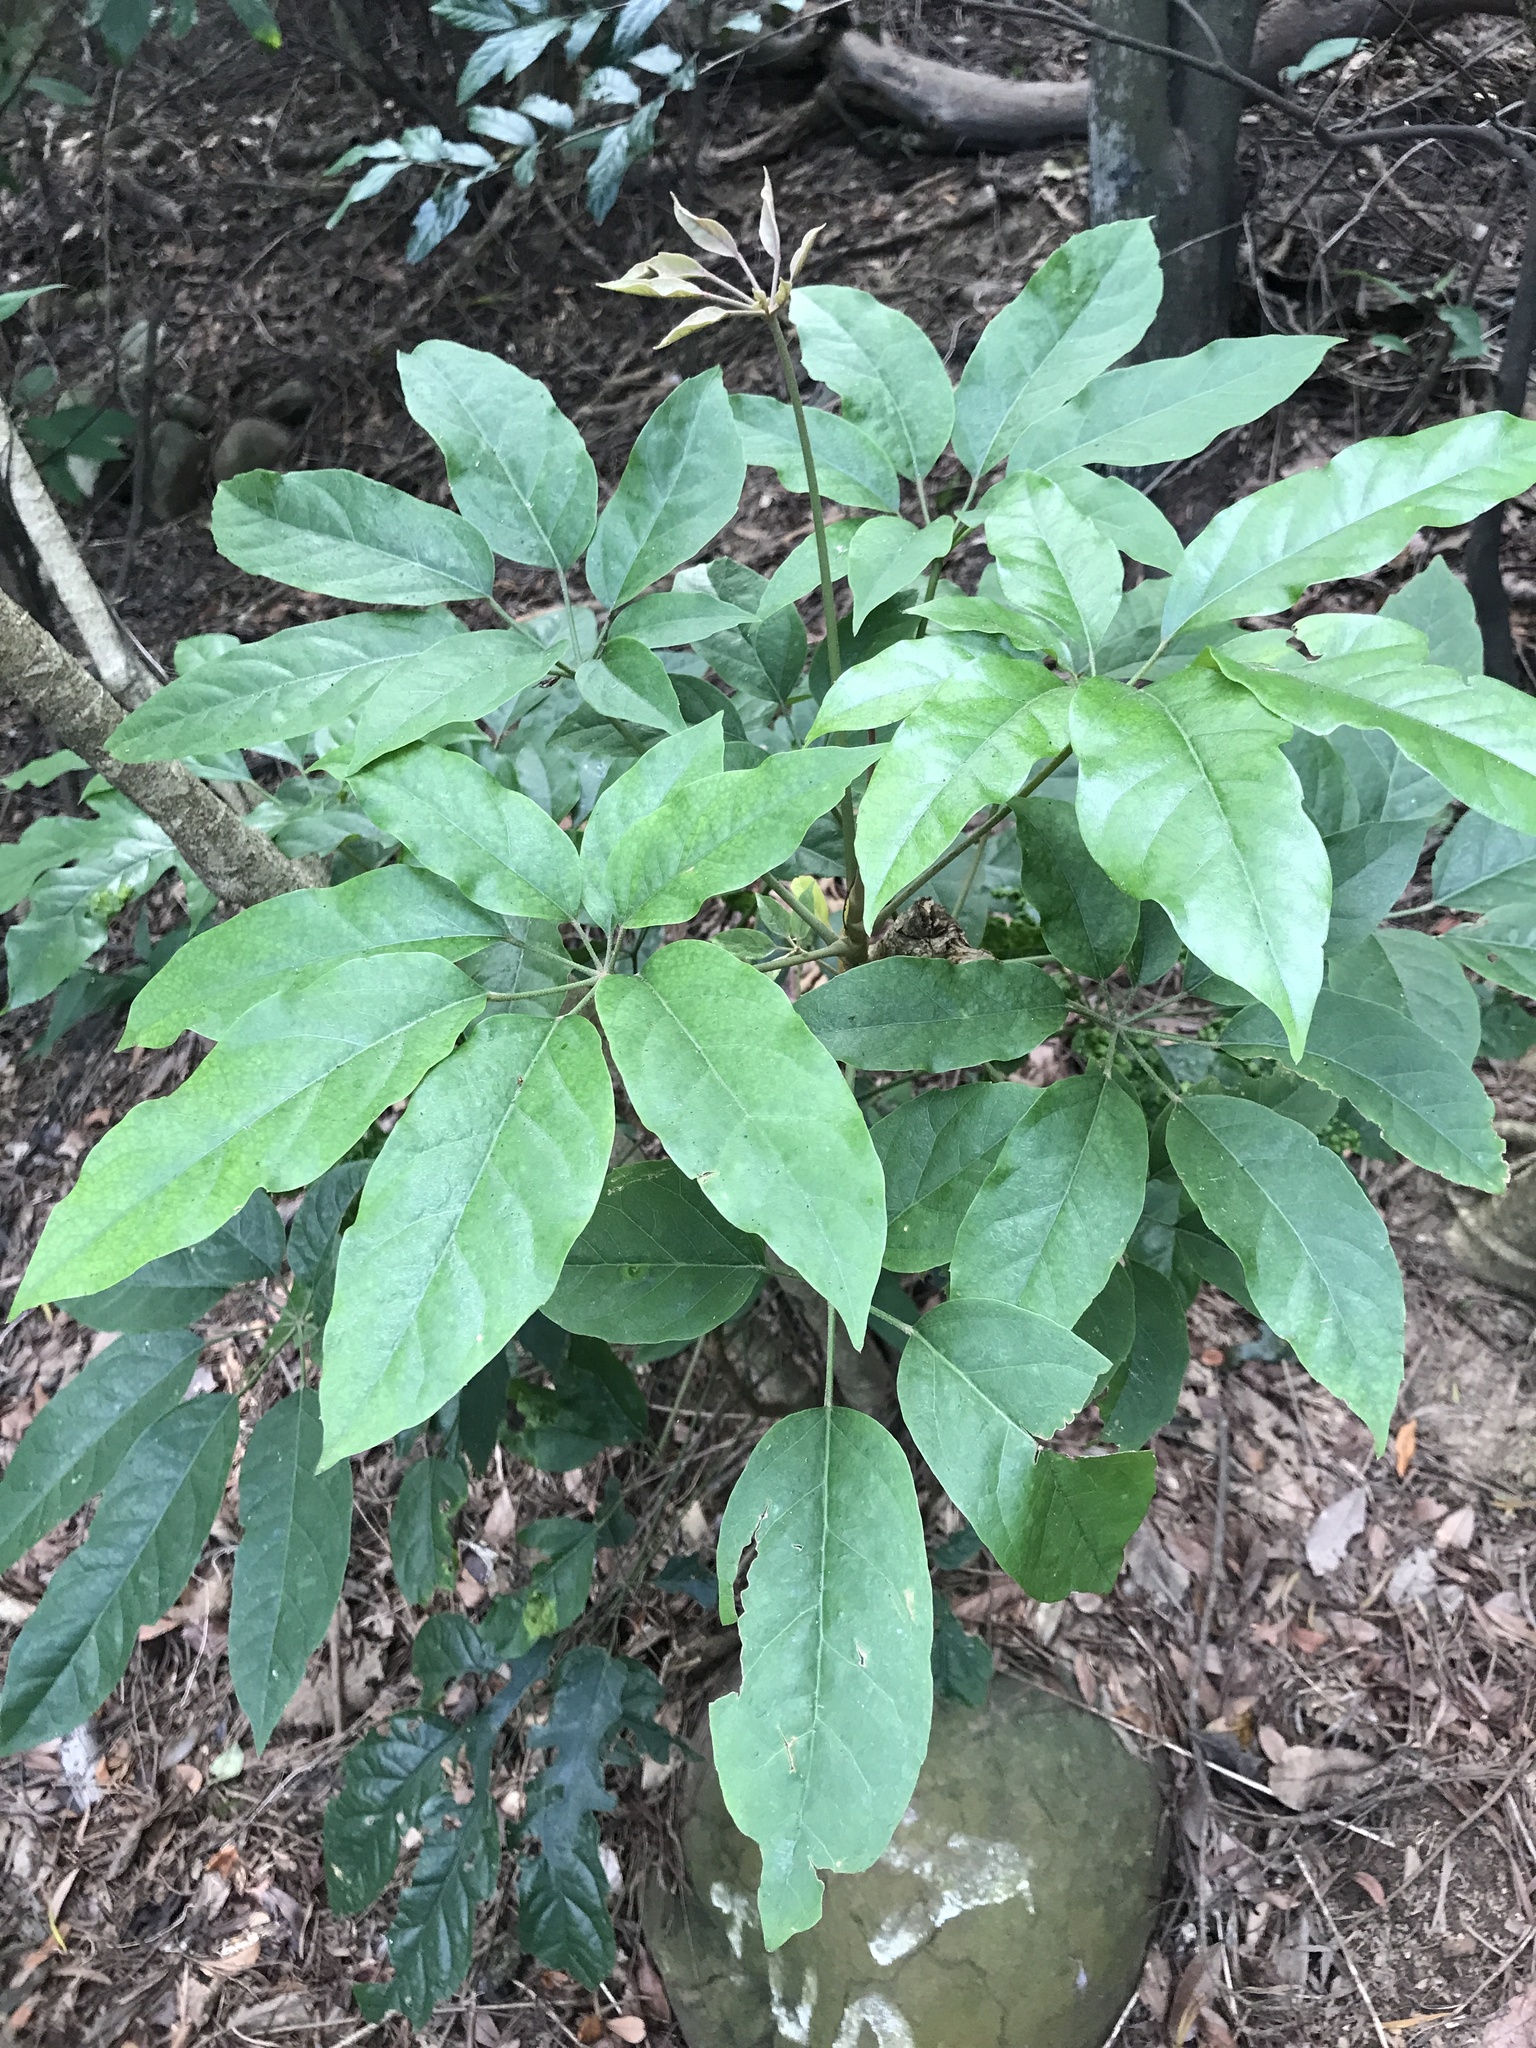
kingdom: Plantae
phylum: Tracheophyta
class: Magnoliopsida
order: Apiales
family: Araliaceae
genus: Heptapleurum
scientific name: Heptapleurum heptaphyllum
